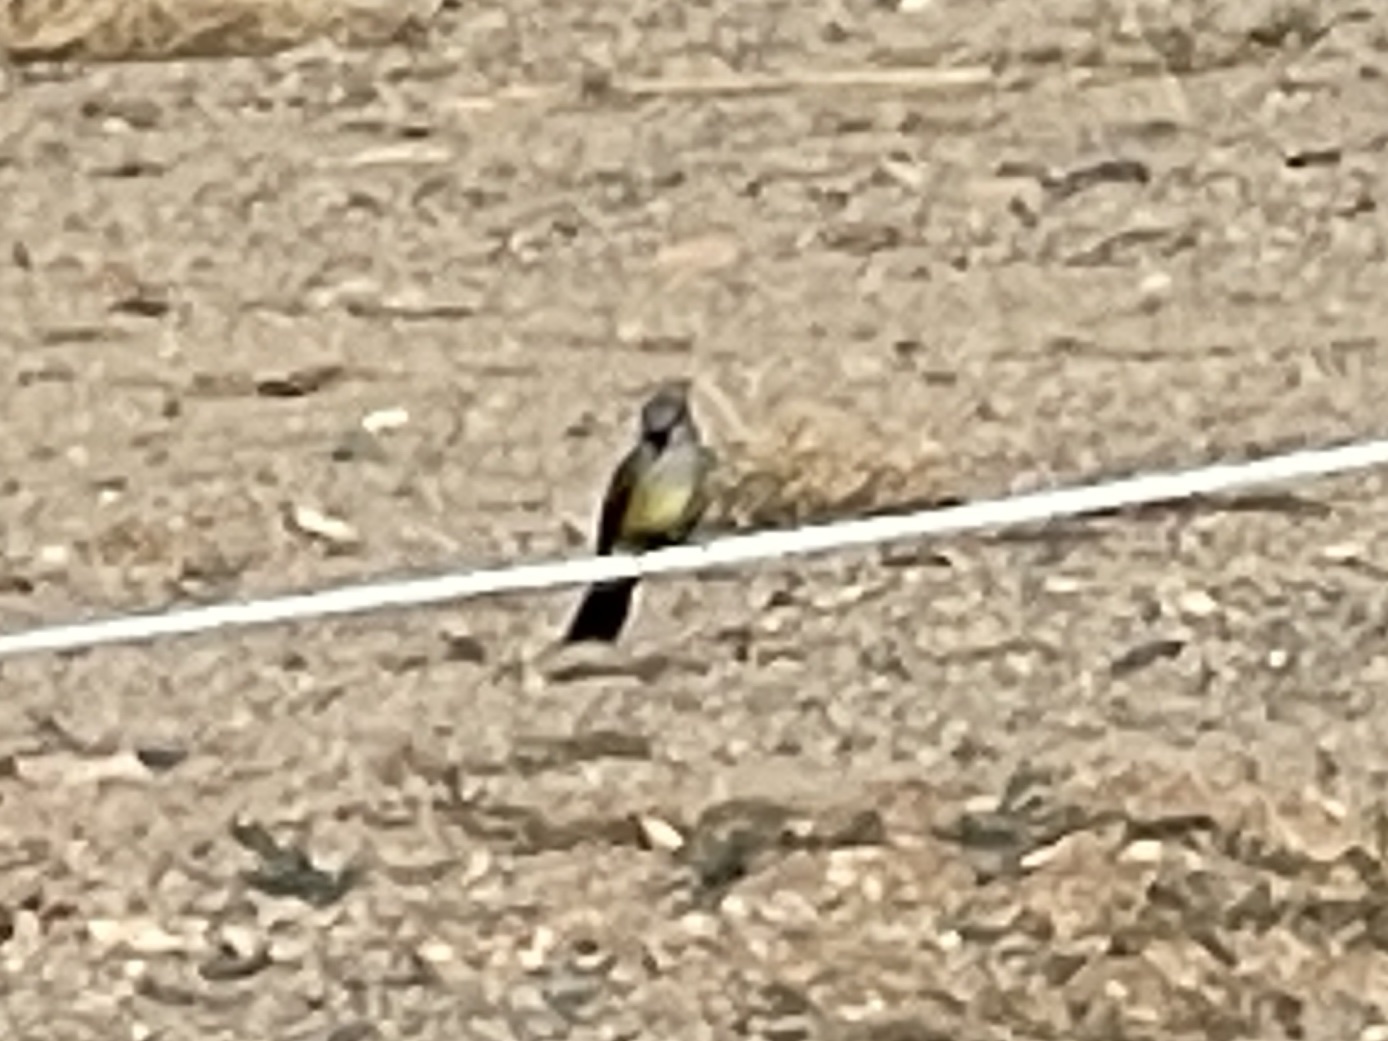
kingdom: Animalia
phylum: Chordata
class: Aves
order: Passeriformes
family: Tyrannidae
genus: Tyrannus
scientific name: Tyrannus verticalis
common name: Western kingbird
